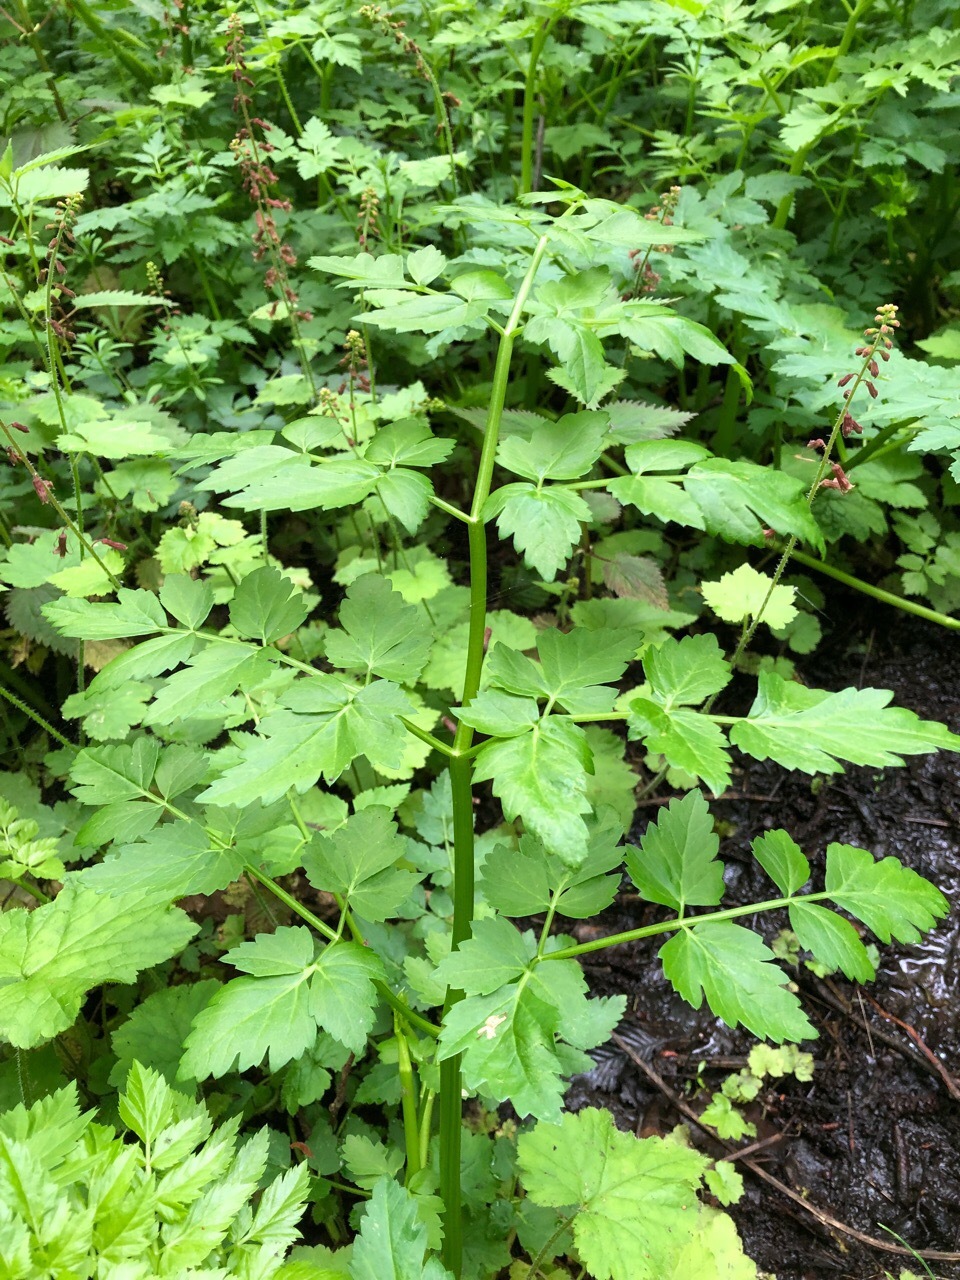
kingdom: Plantae
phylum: Tracheophyta
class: Magnoliopsida
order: Apiales
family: Apiaceae
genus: Oenanthe
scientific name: Oenanthe sarmentosa
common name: American water-parsley
